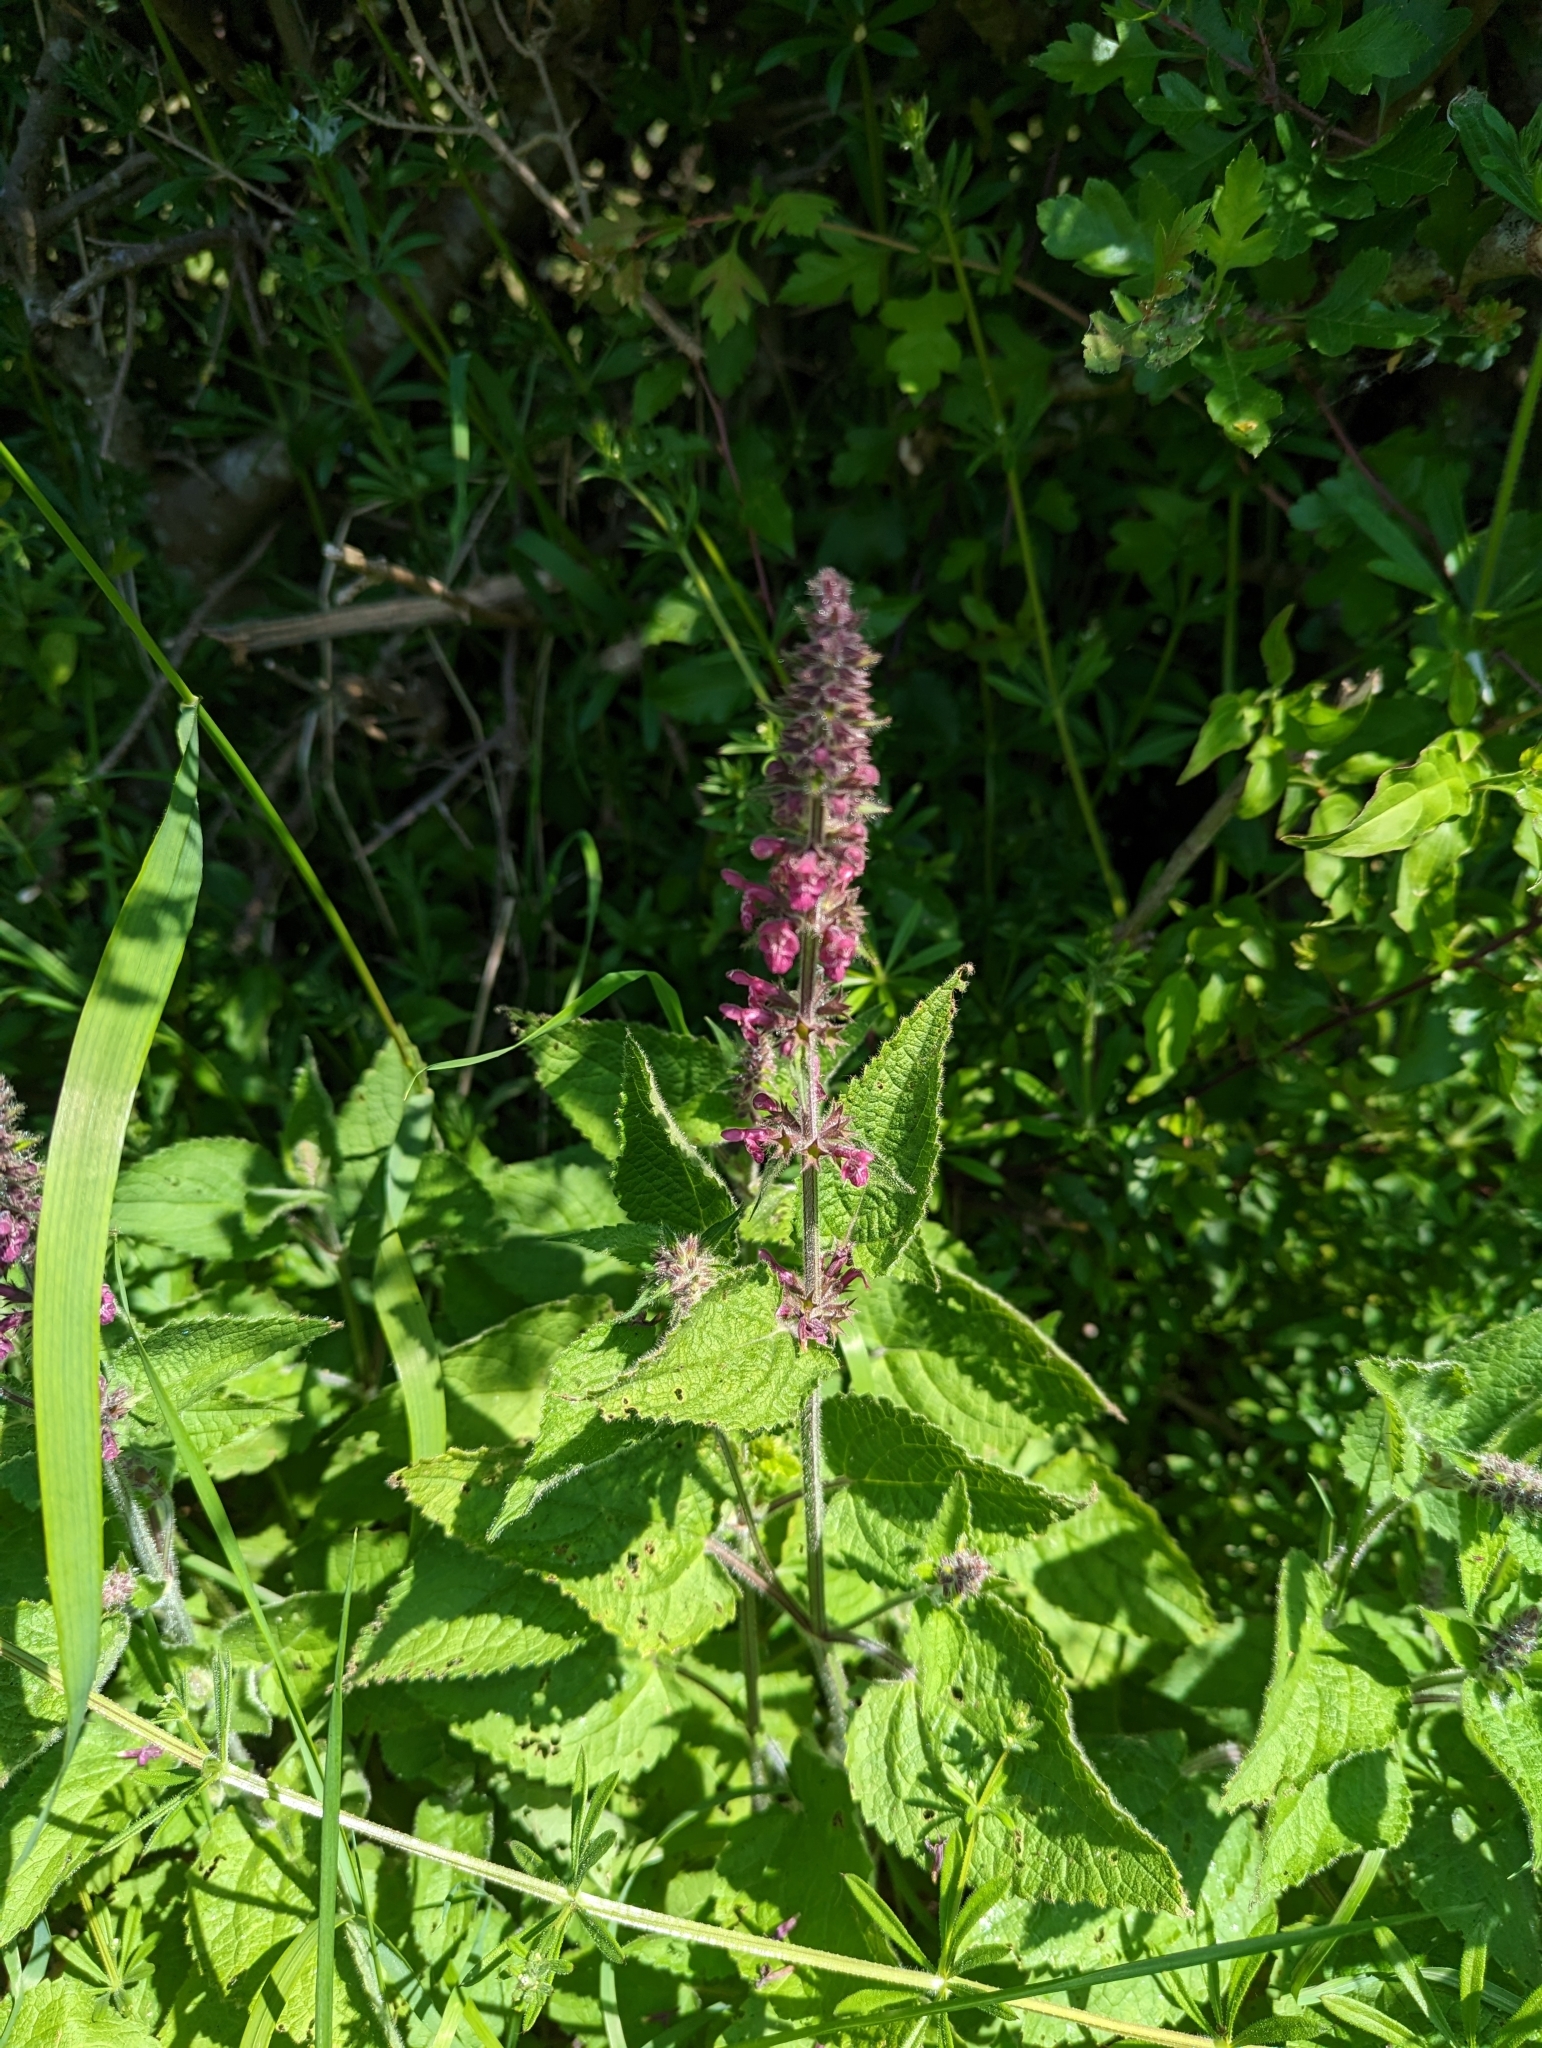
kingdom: Plantae
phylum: Tracheophyta
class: Magnoliopsida
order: Lamiales
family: Lamiaceae
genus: Stachys
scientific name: Stachys sylvatica
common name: Hedge woundwort
